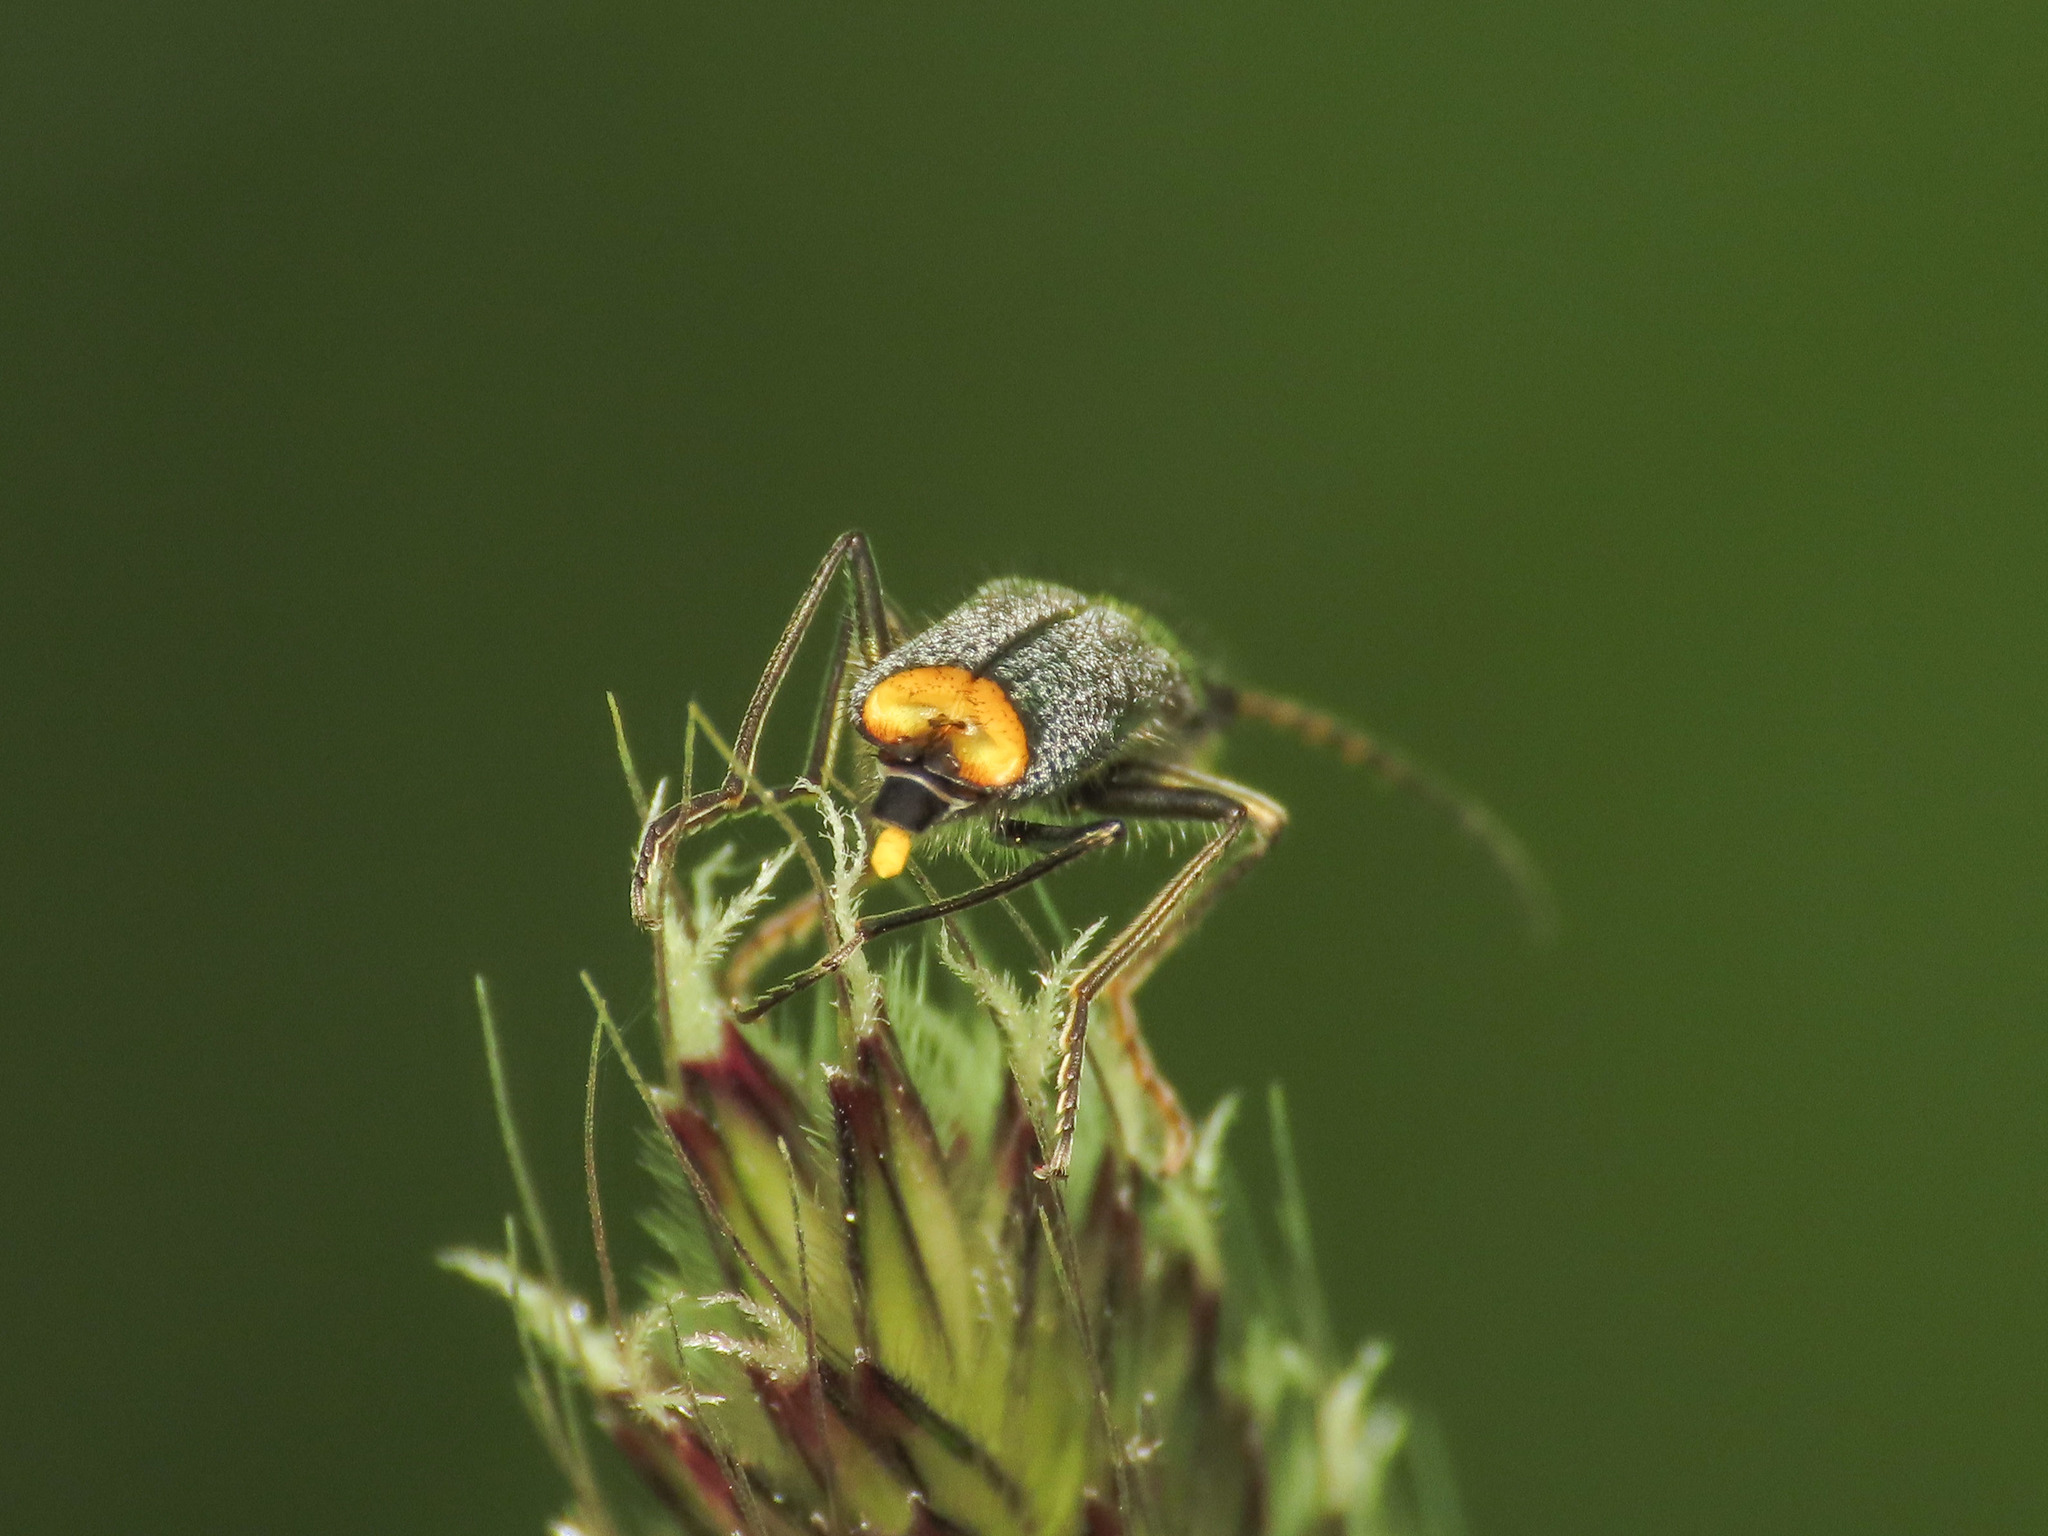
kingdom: Animalia
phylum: Arthropoda
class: Insecta
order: Coleoptera
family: Malachiidae
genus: Clanoptilus
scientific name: Clanoptilus italicus
